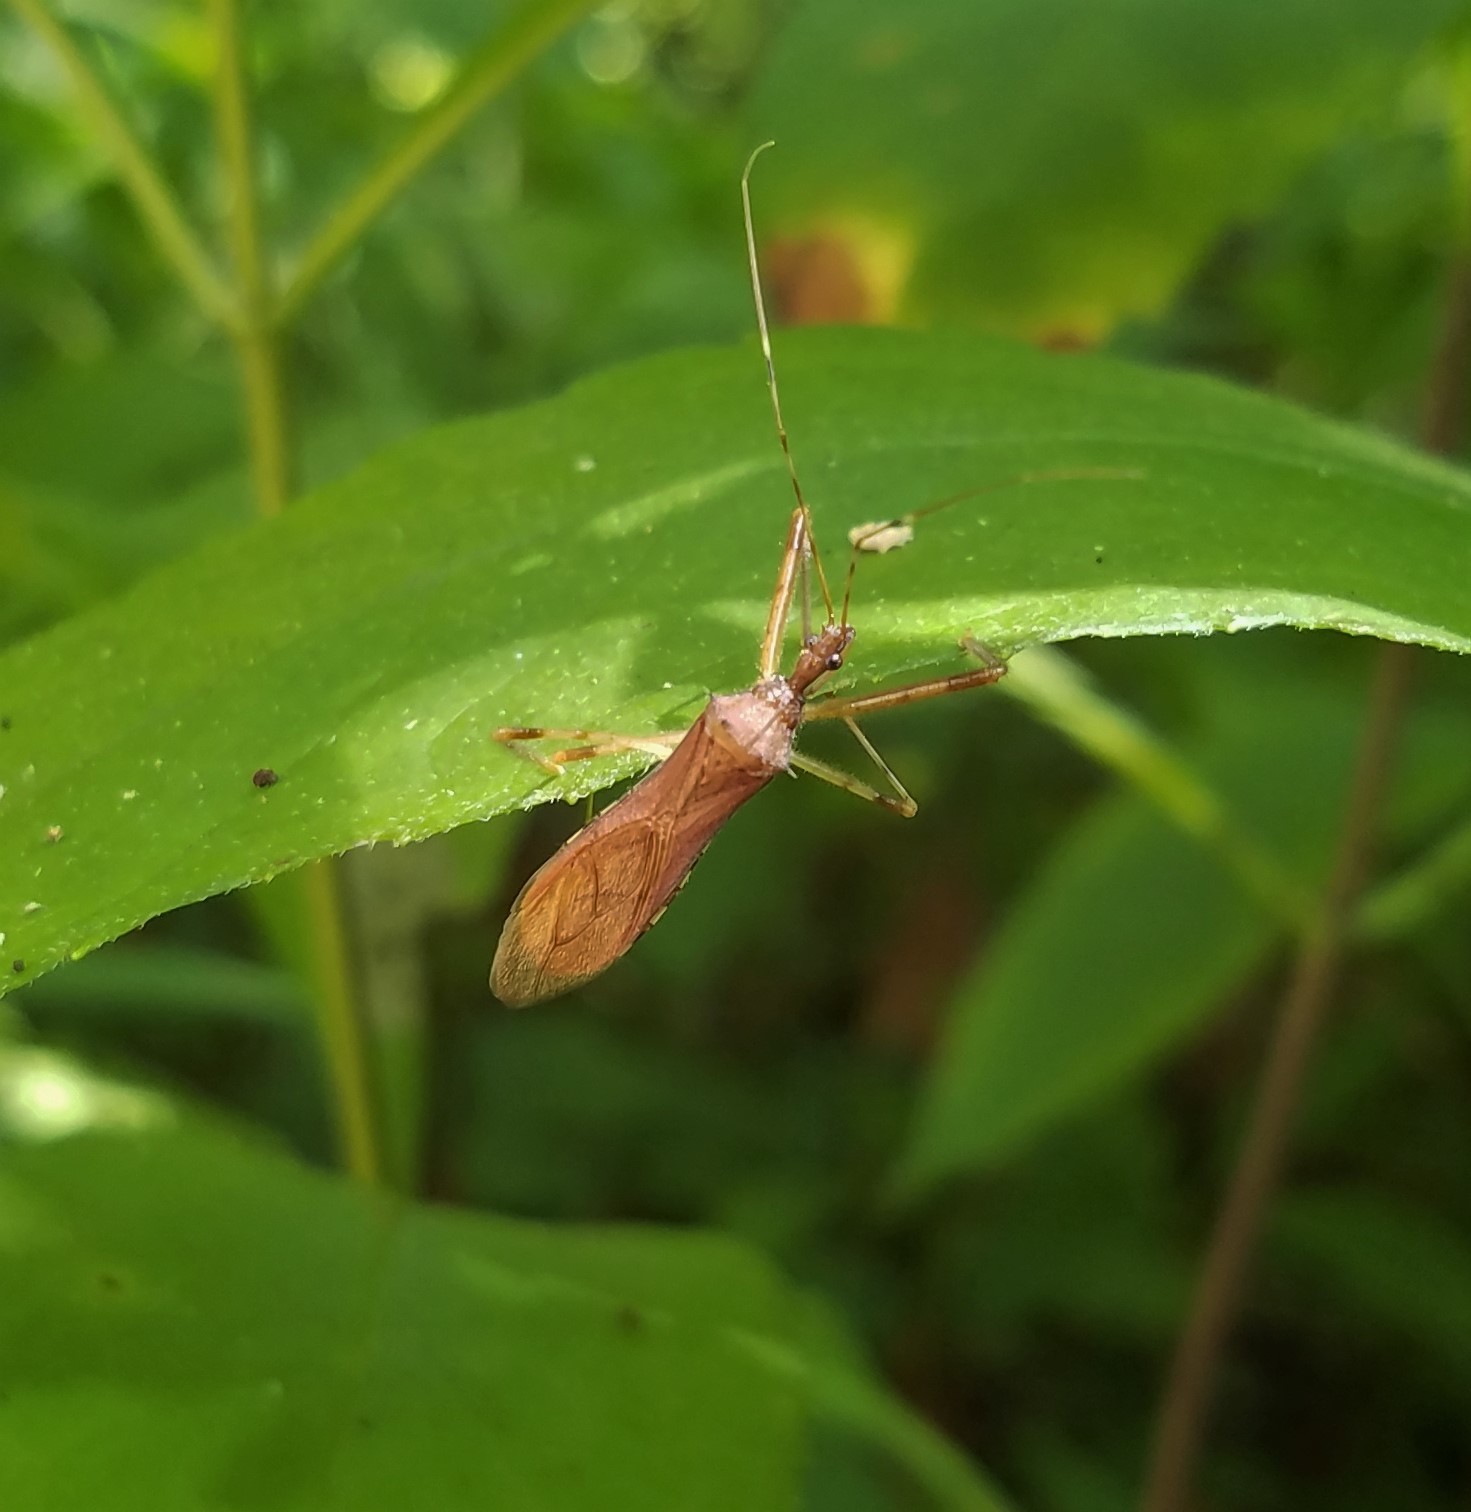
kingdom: Animalia
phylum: Arthropoda
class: Insecta
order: Hemiptera
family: Reduviidae
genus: Rocconota
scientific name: Rocconota annulicornis
